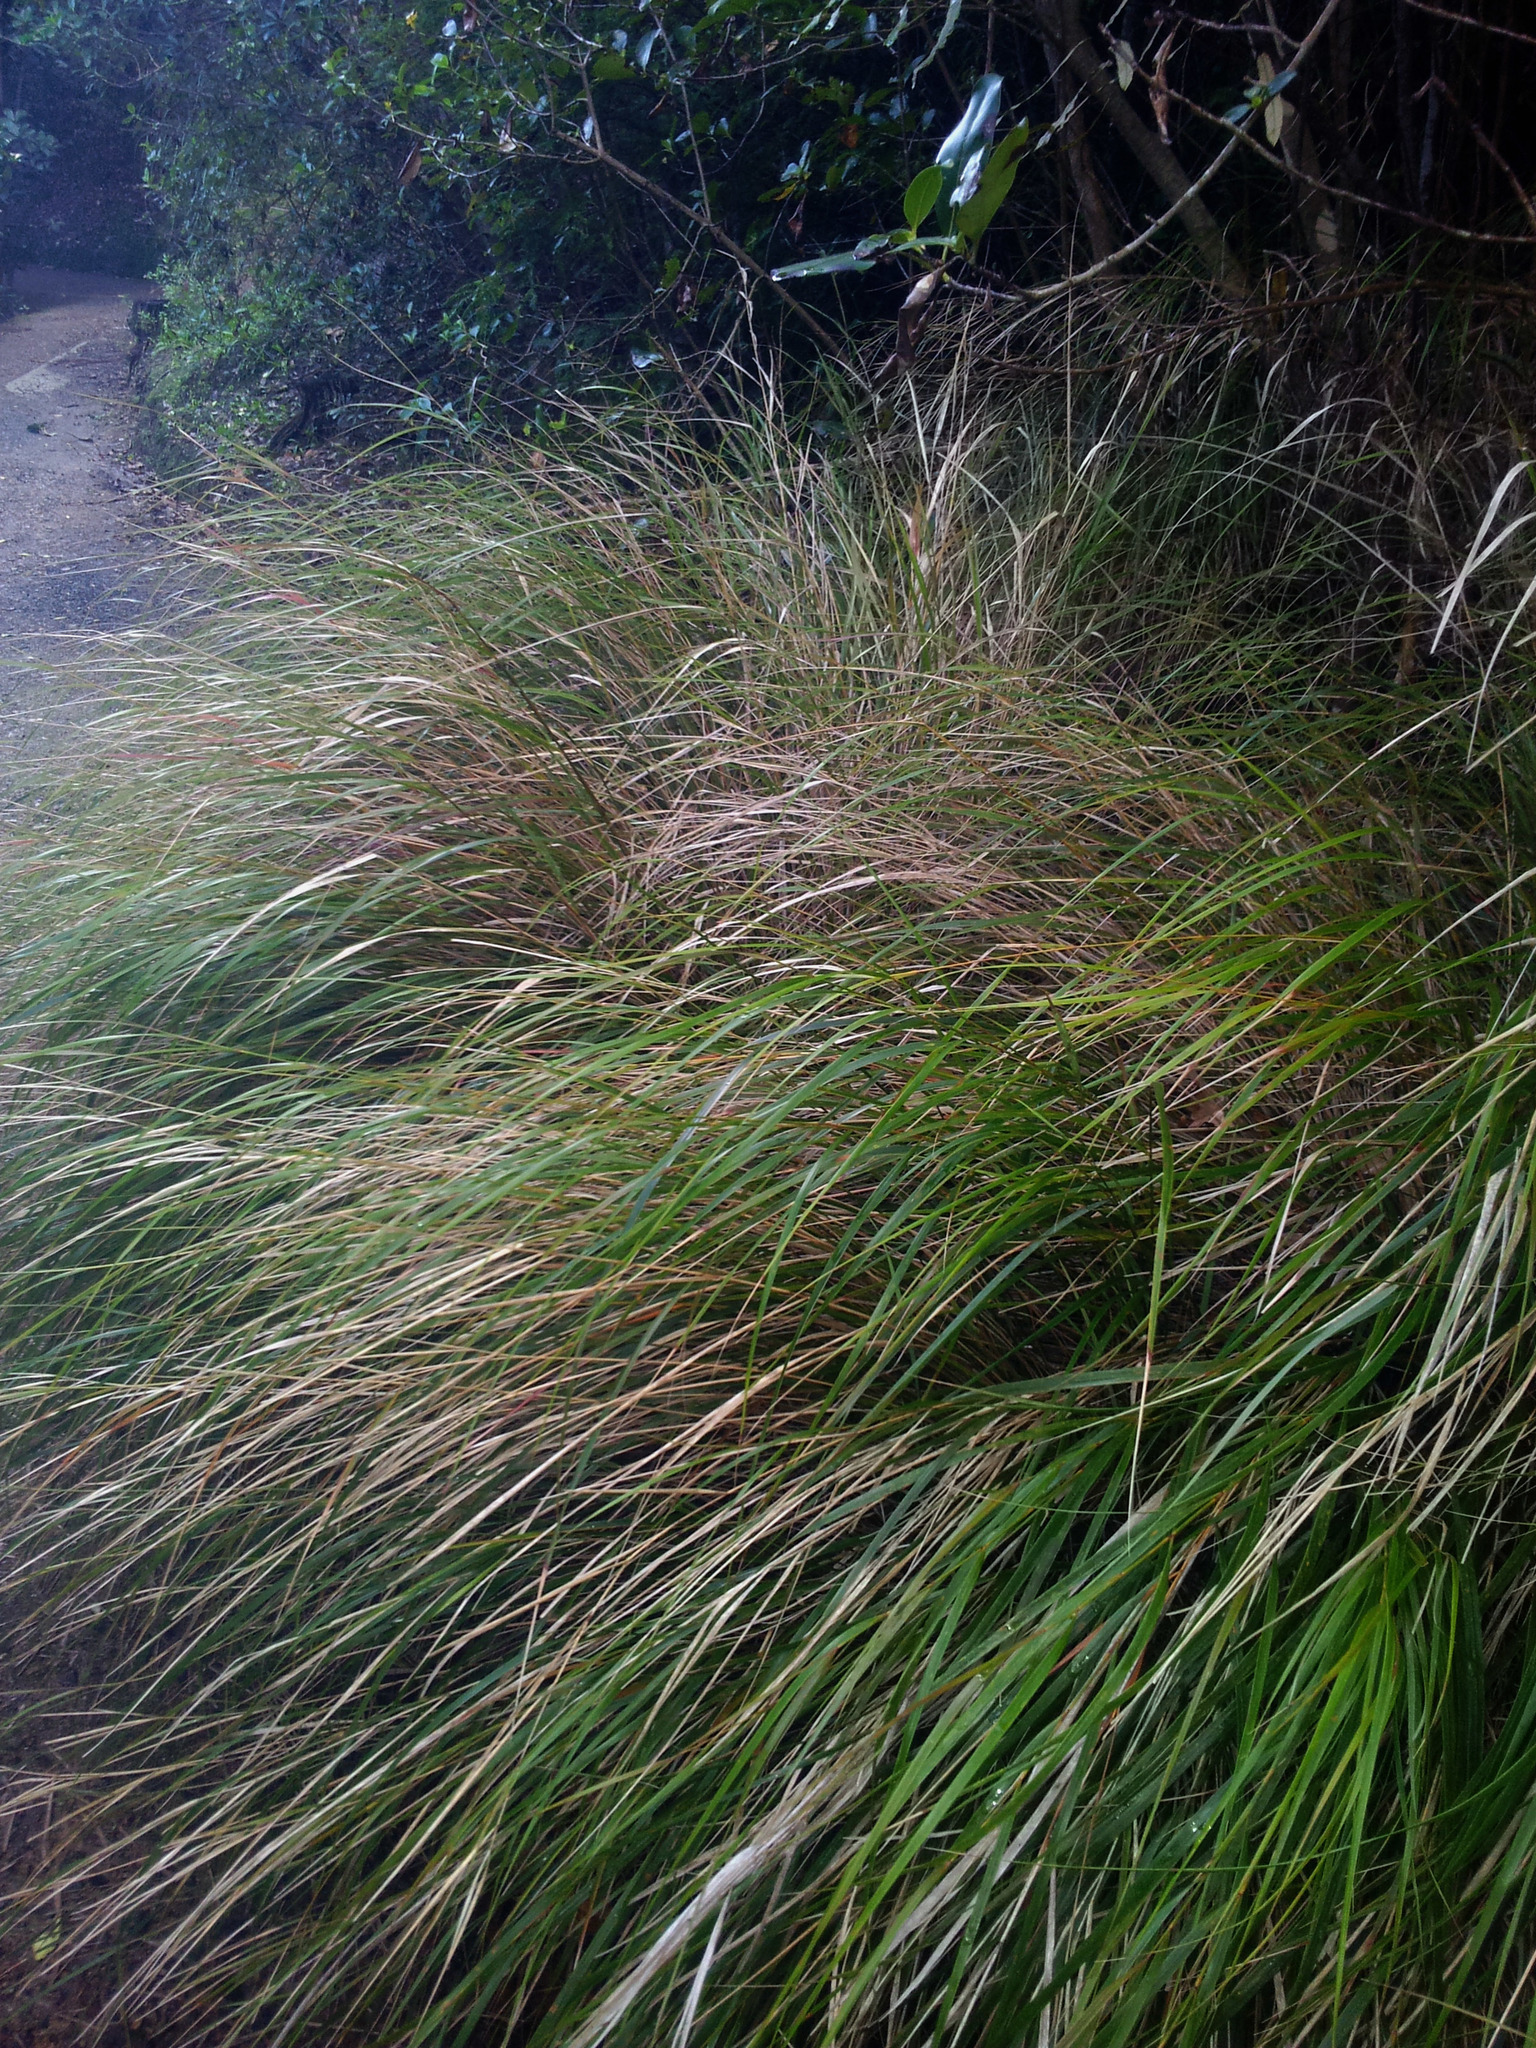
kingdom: Plantae
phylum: Tracheophyta
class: Liliopsida
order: Poales
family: Poaceae
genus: Anemanthele
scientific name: Anemanthele lessoniana
